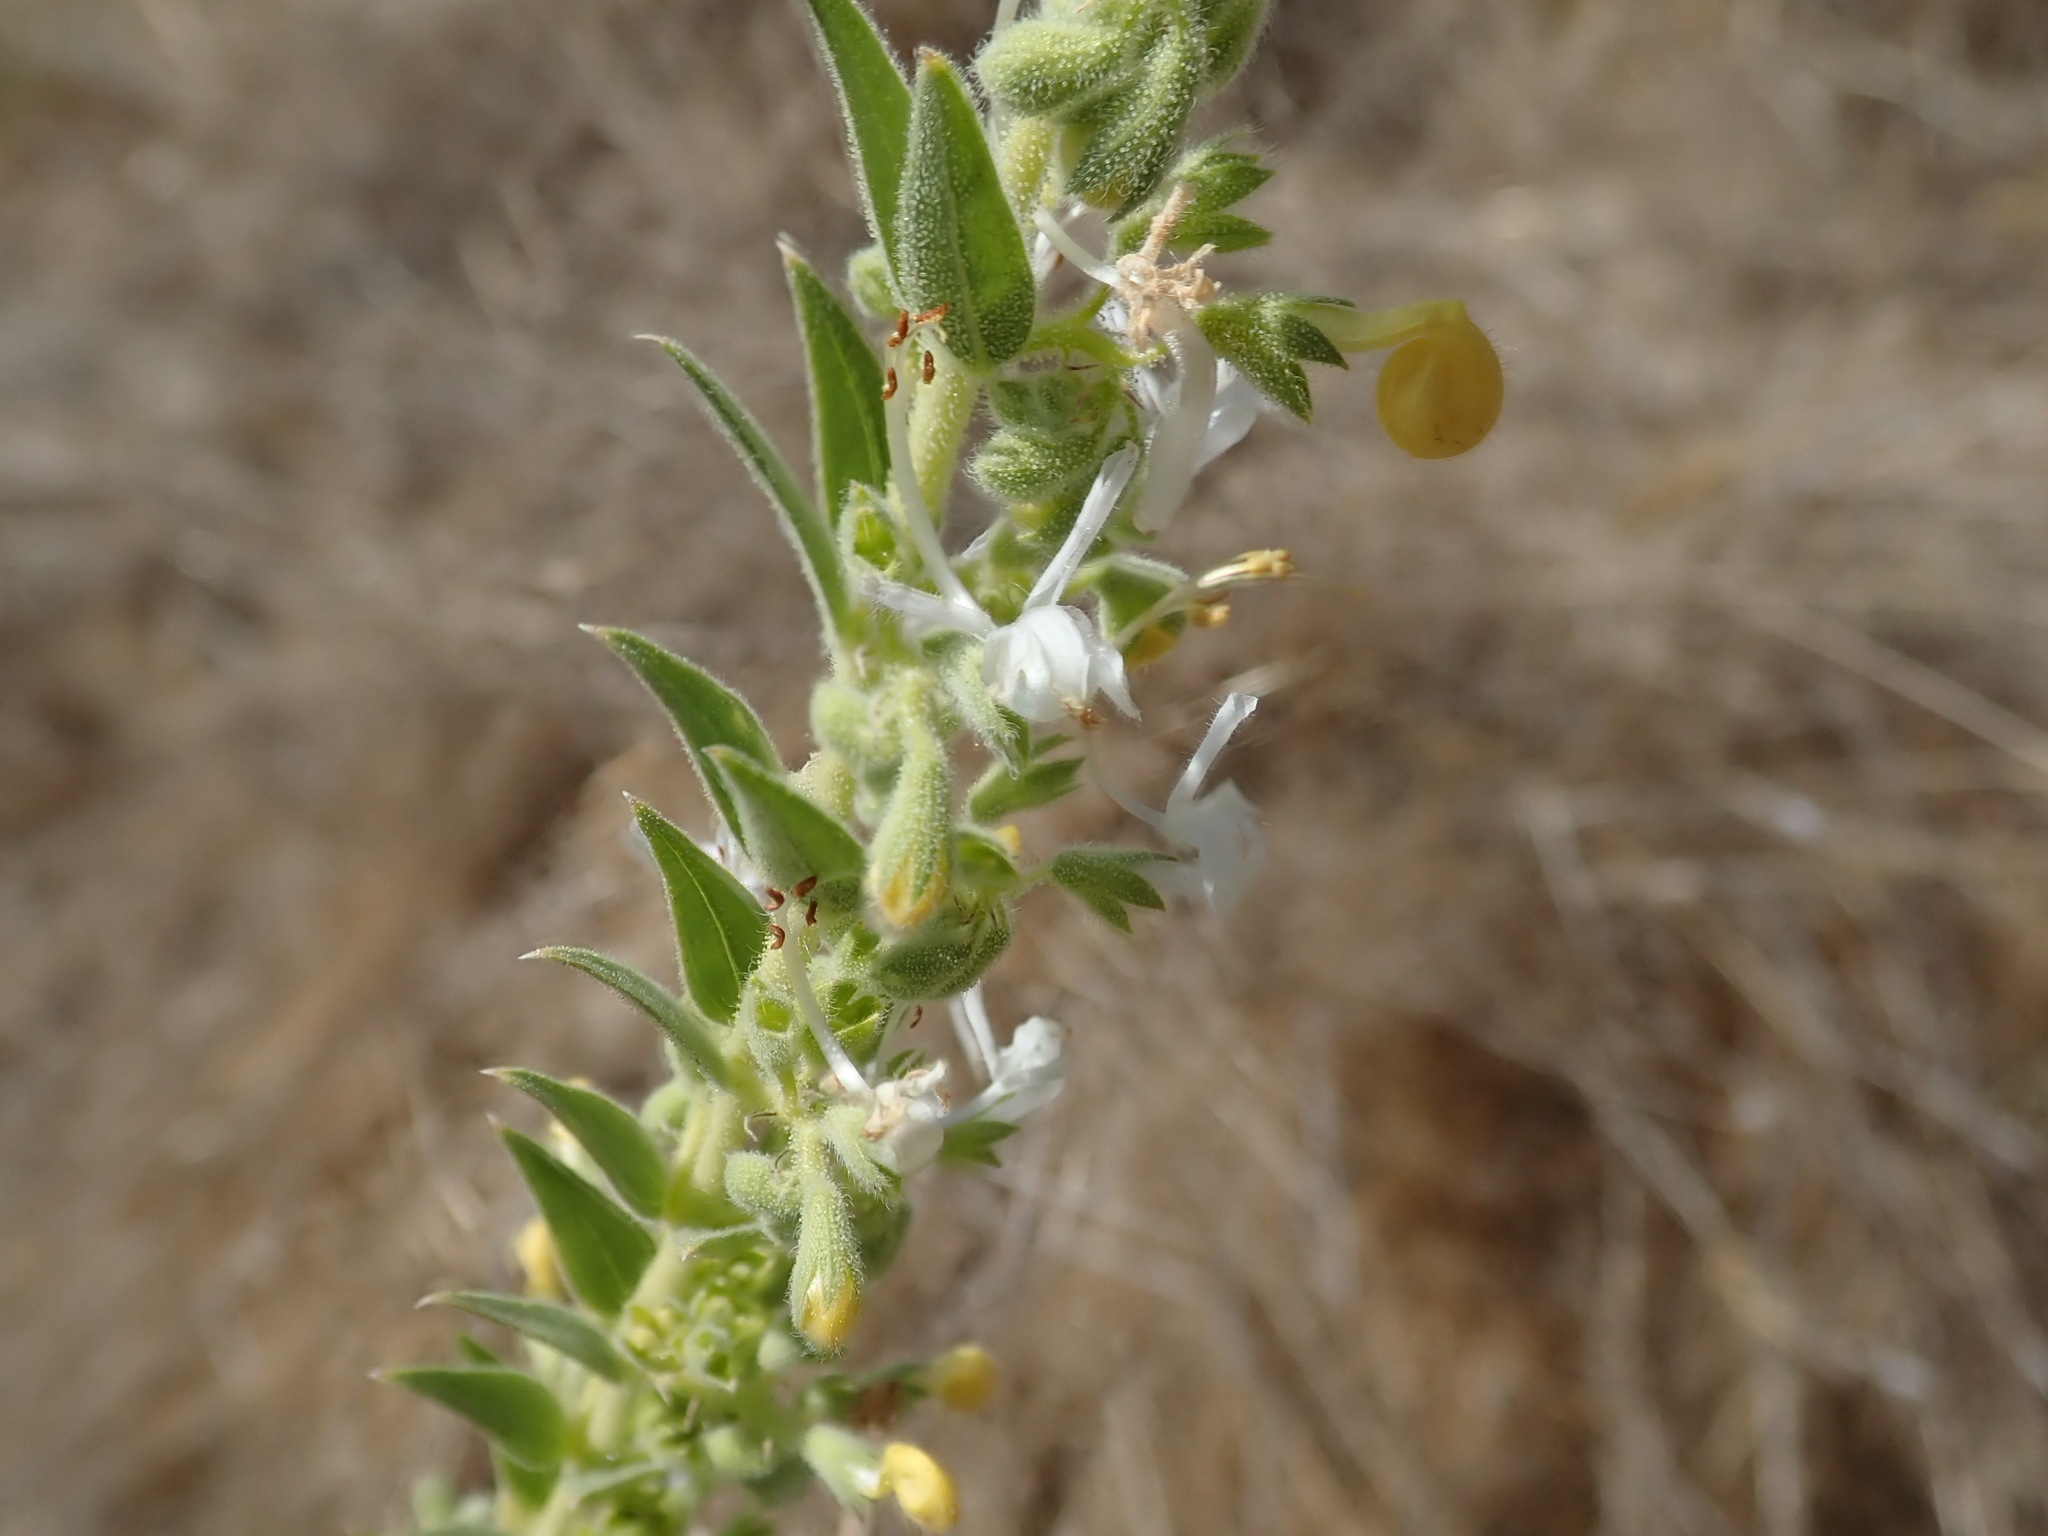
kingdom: Plantae
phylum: Tracheophyta
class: Magnoliopsida
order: Lamiales
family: Lamiaceae
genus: Trichostema
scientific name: Trichostema lanceolatum
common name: Vinegar-weed
